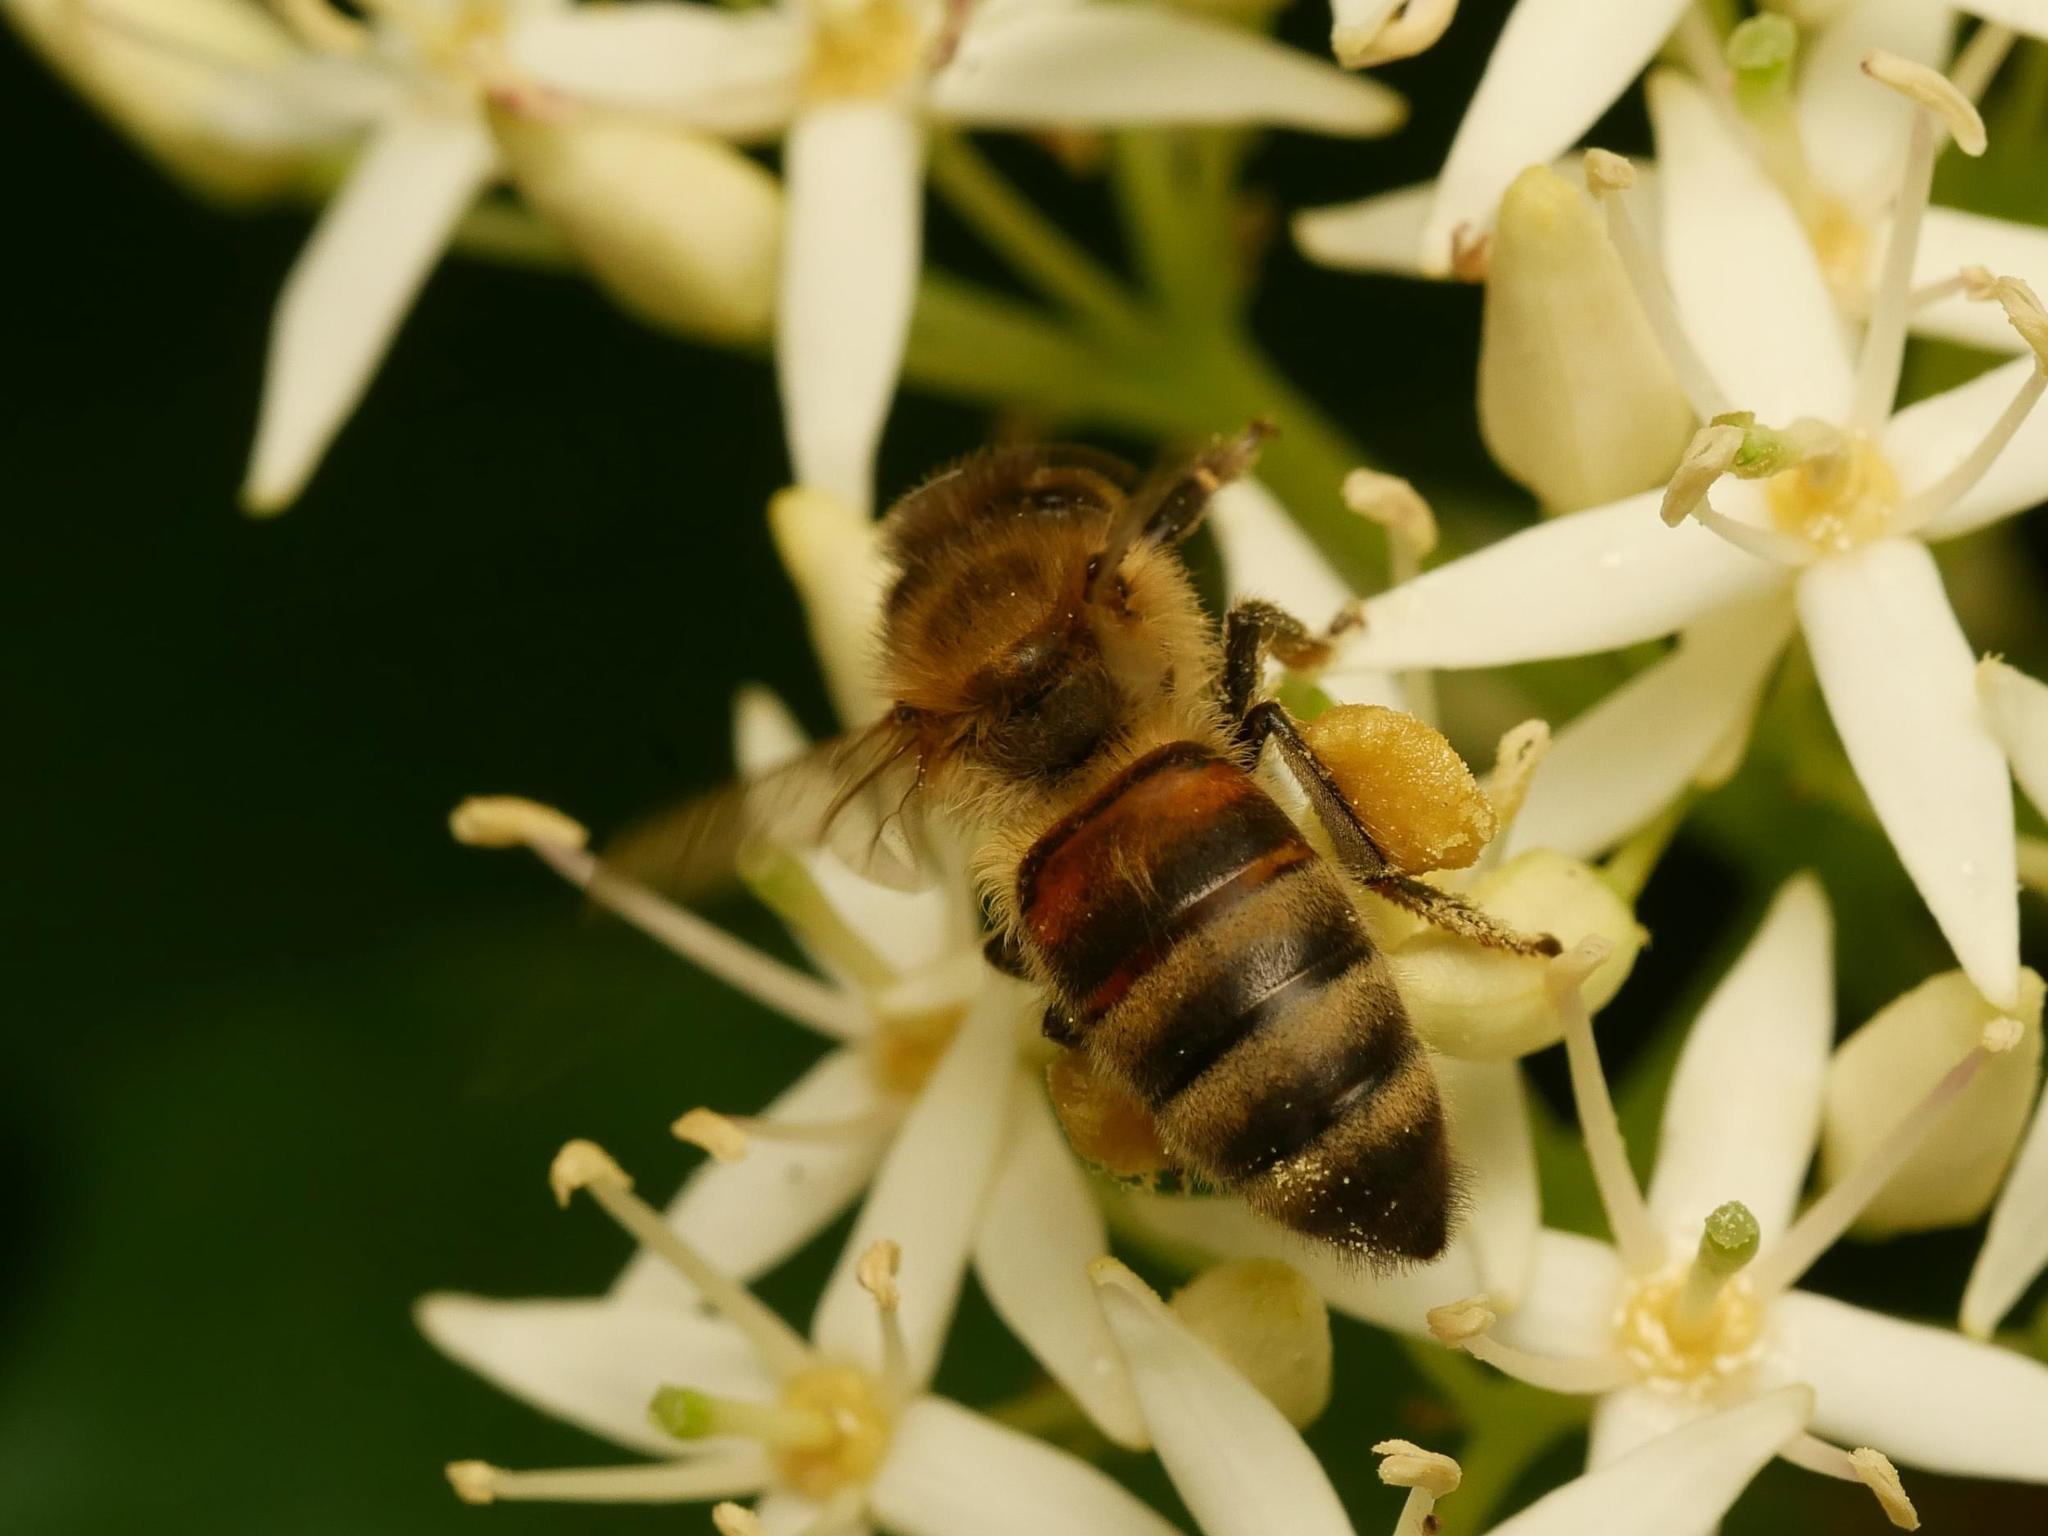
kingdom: Animalia
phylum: Arthropoda
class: Insecta
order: Hymenoptera
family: Apidae
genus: Apis
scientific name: Apis mellifera
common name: Honey bee
